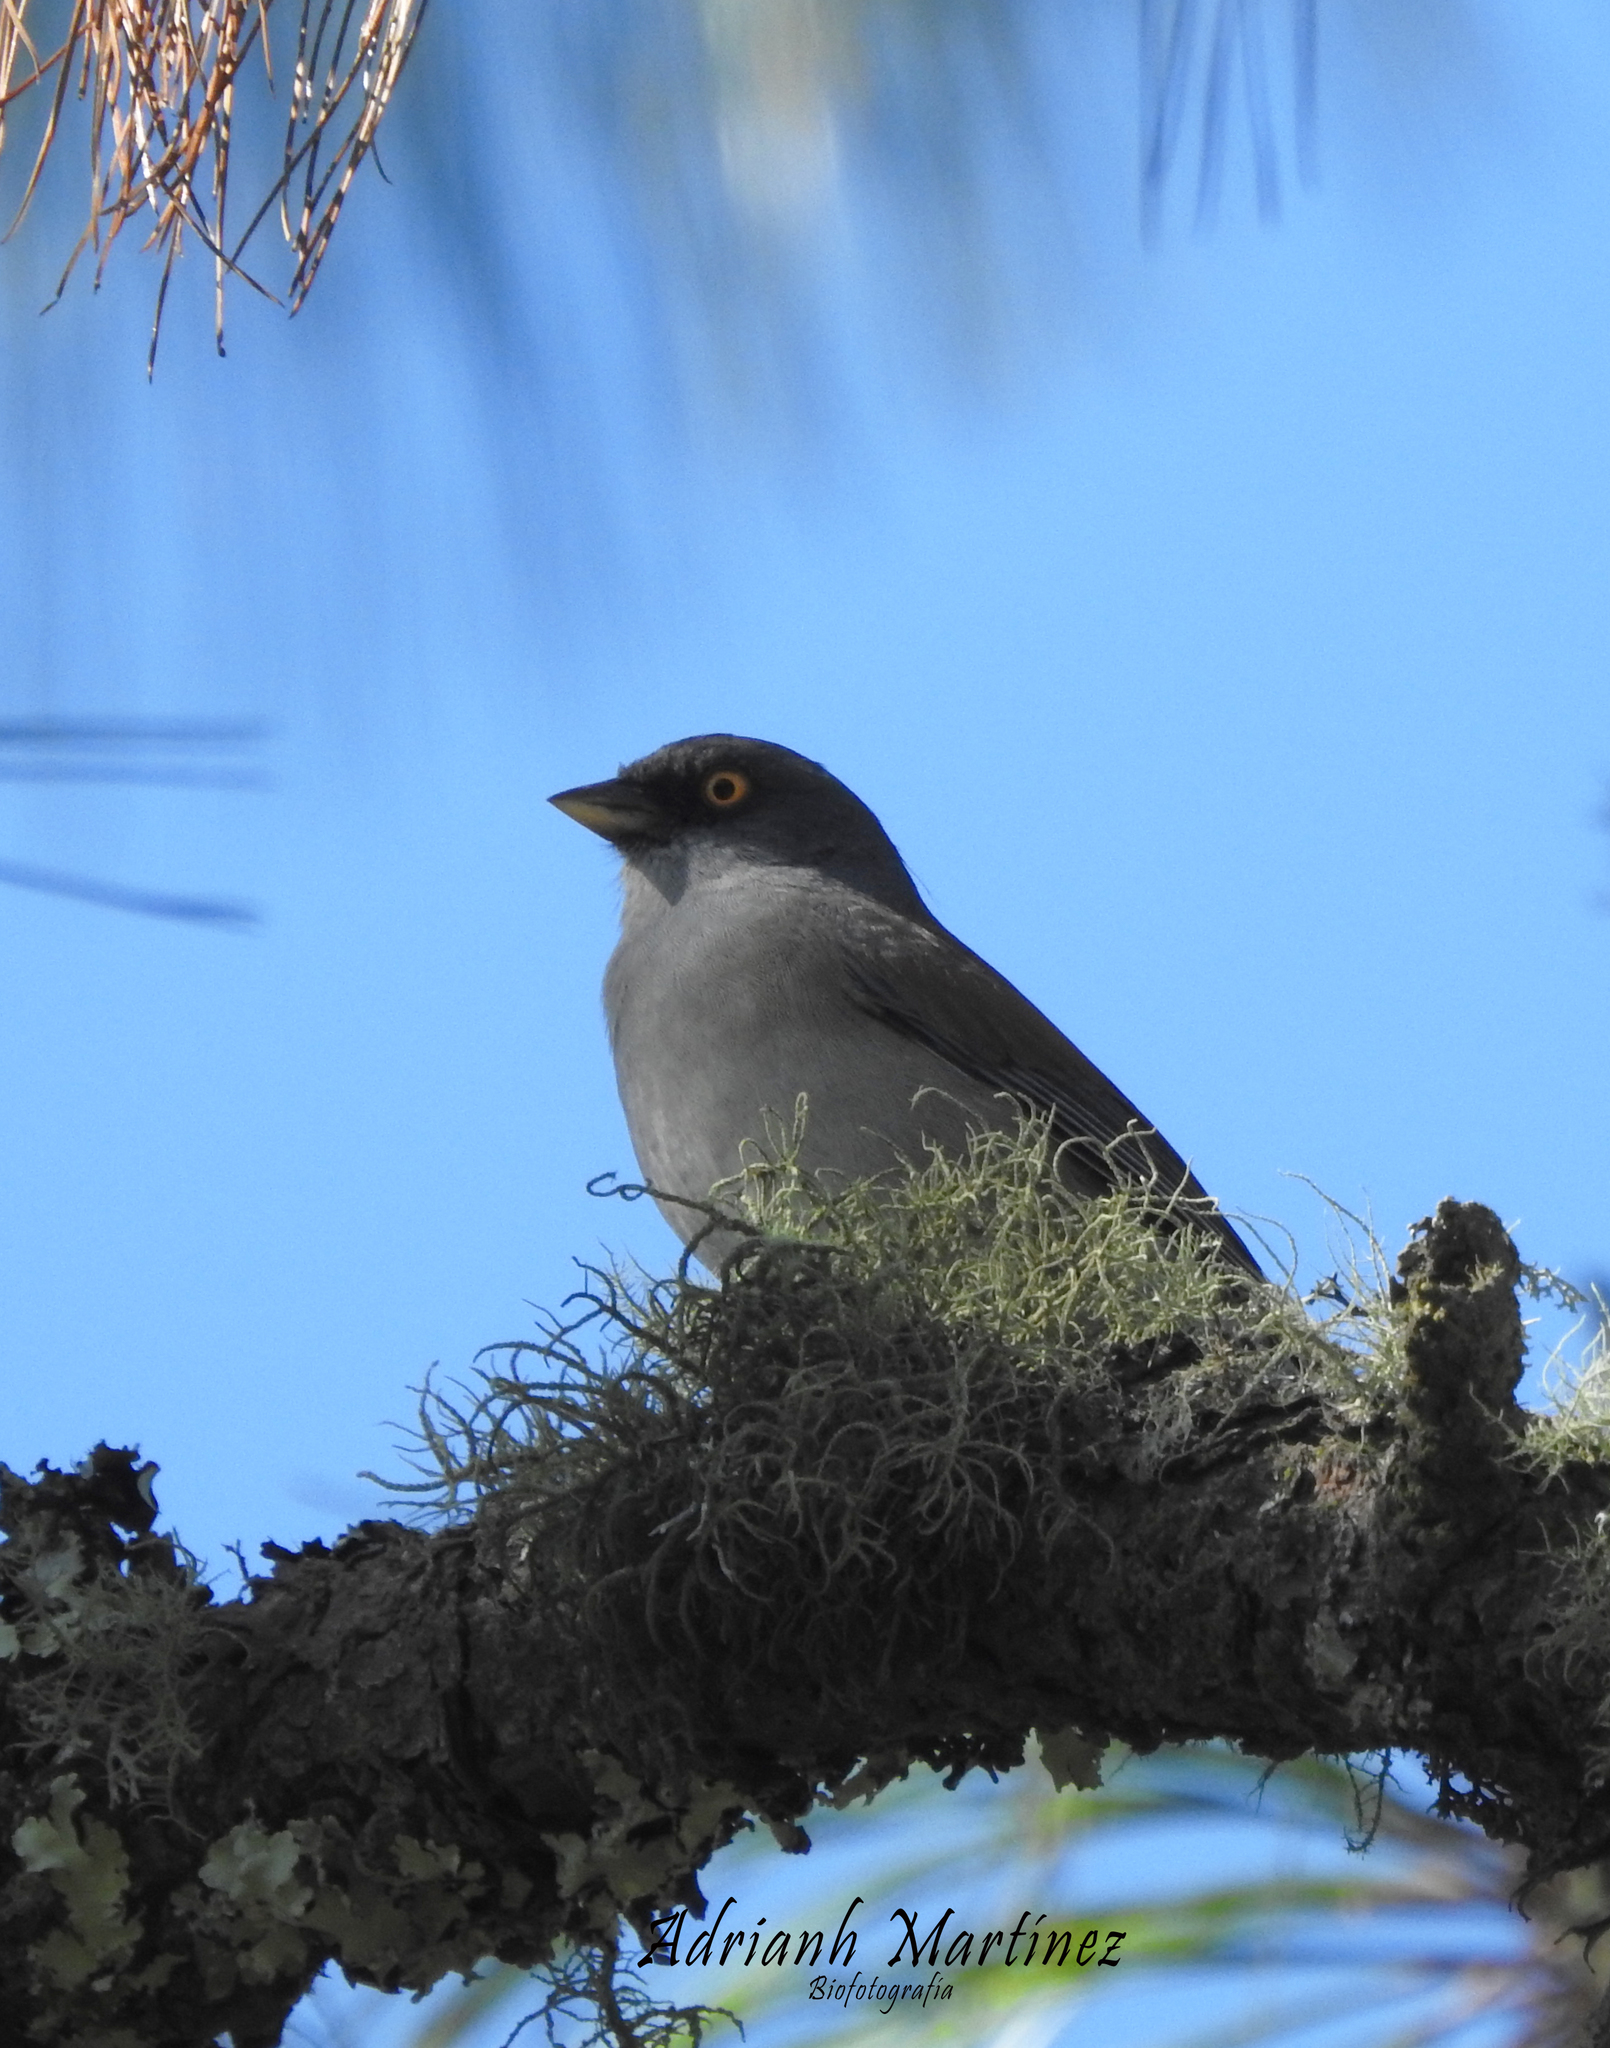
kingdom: Animalia
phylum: Chordata
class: Aves
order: Passeriformes
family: Passerellidae
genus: Junco
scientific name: Junco phaeonotus
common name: Yellow-eyed junco
